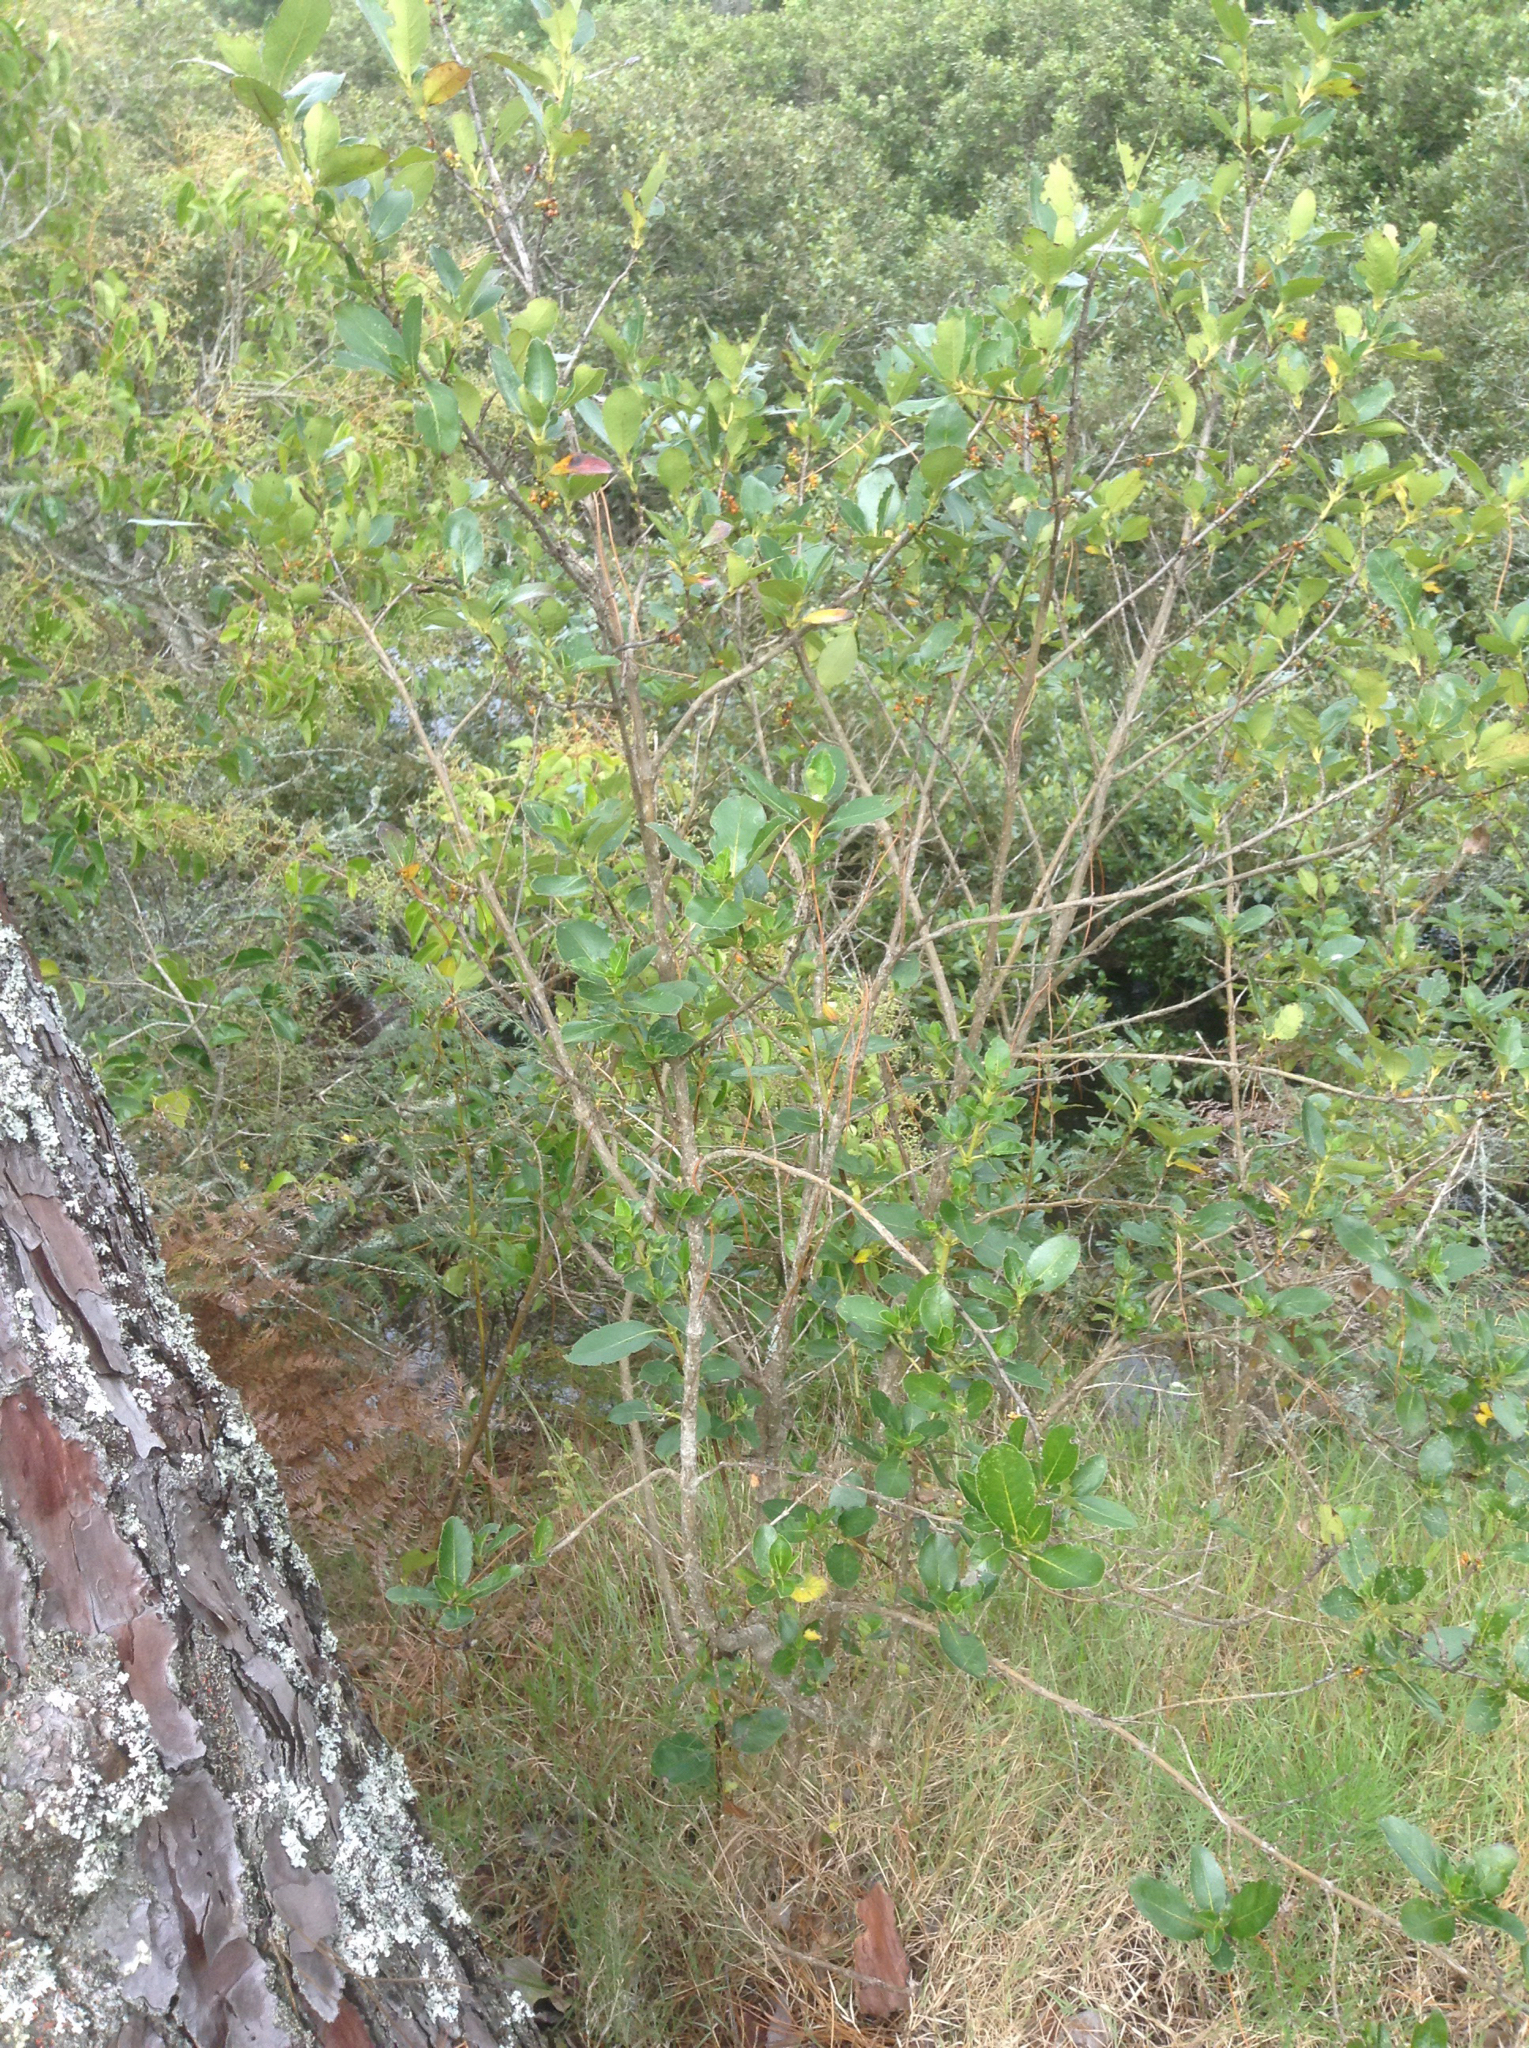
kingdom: Plantae
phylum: Tracheophyta
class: Magnoliopsida
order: Gentianales
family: Rubiaceae
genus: Coprosma
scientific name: Coprosma robusta
